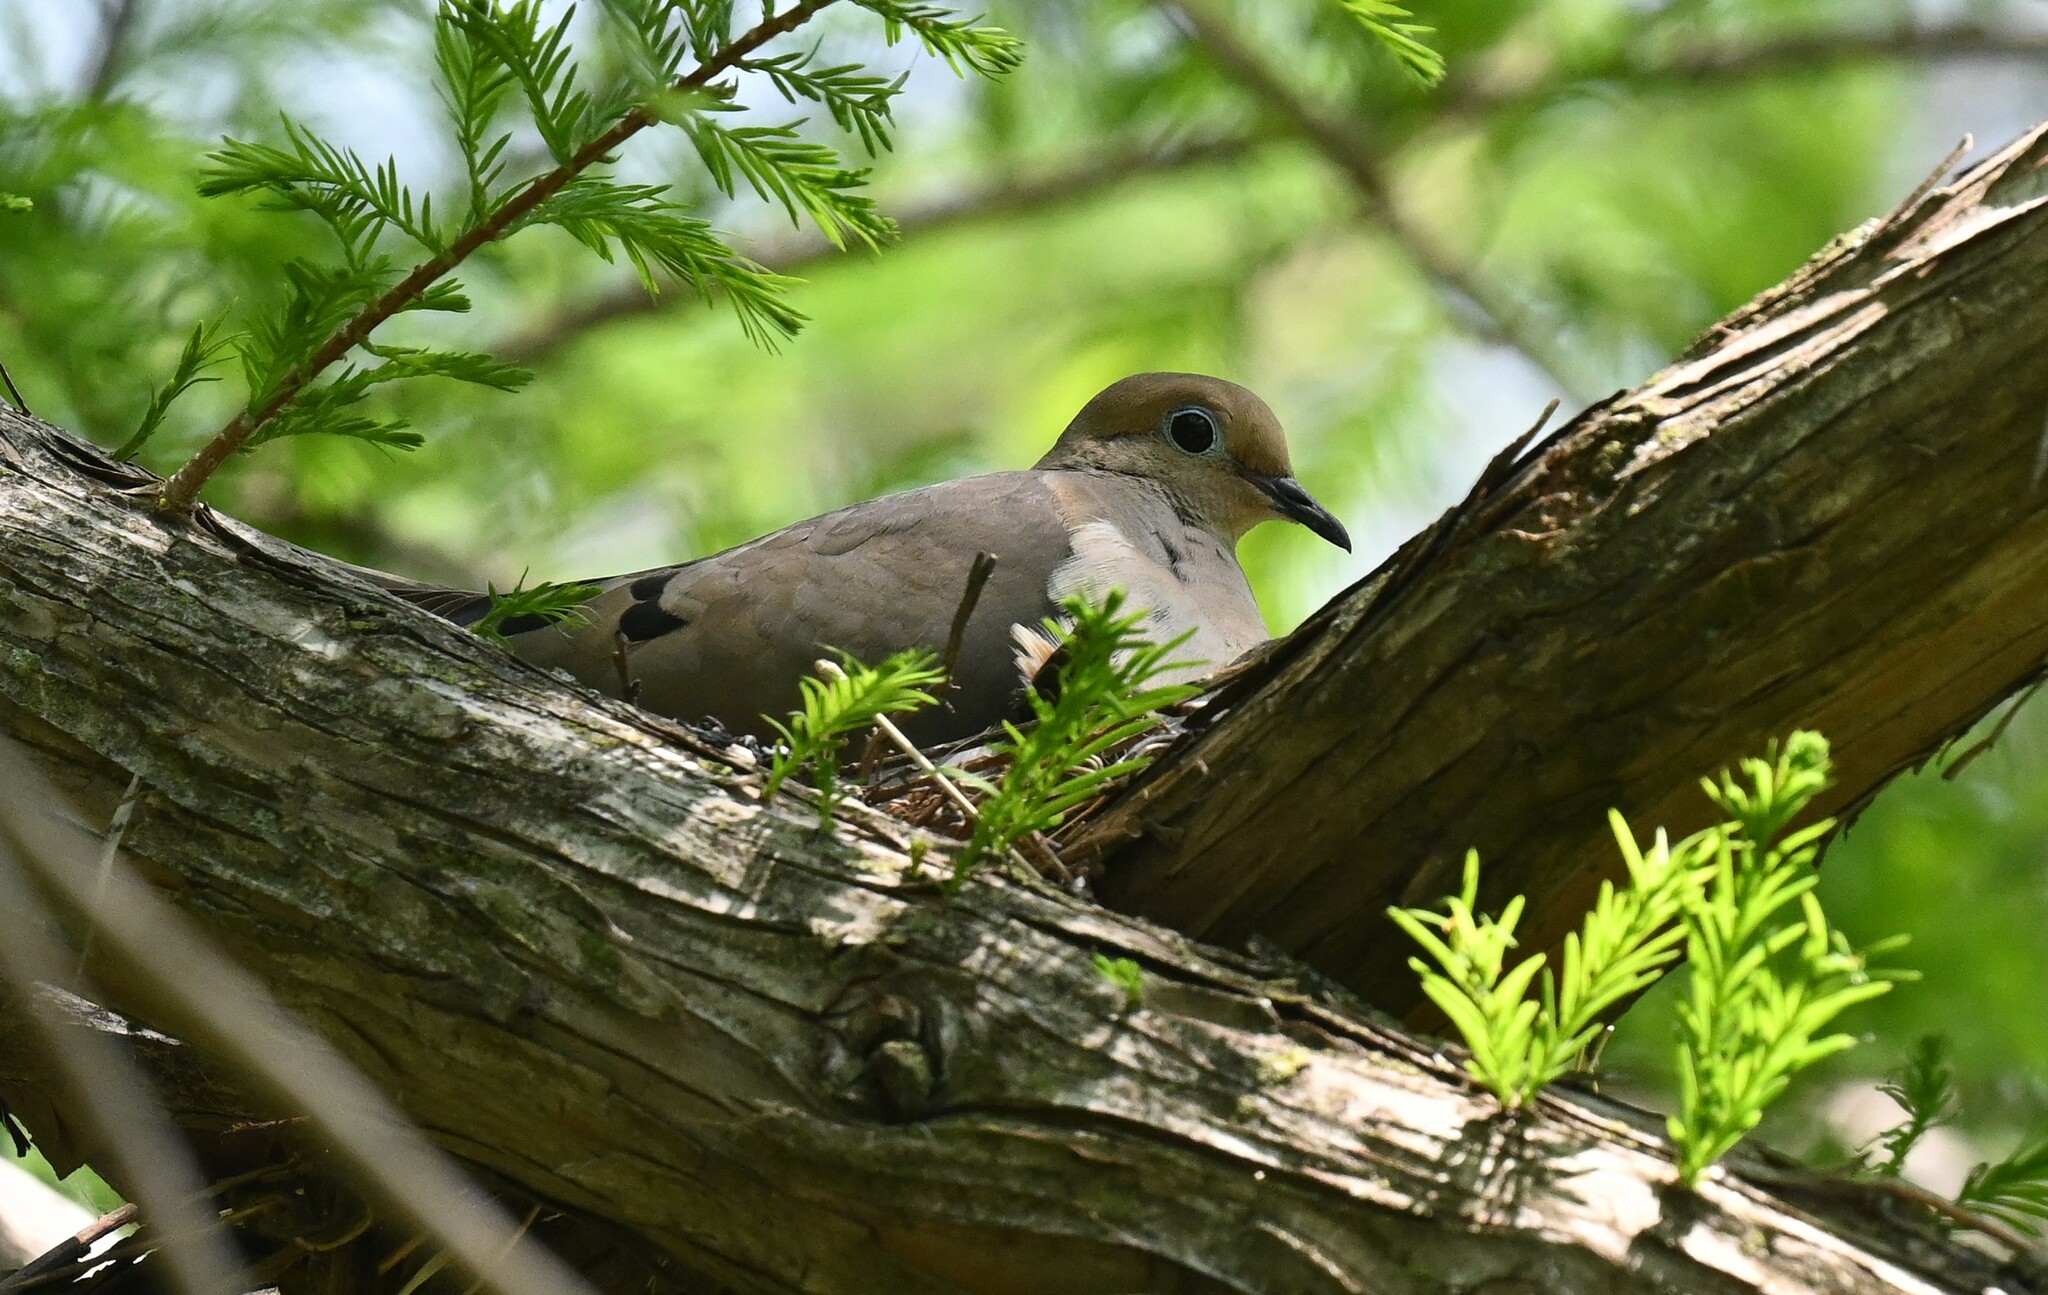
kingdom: Animalia
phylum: Chordata
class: Aves
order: Columbiformes
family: Columbidae
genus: Zenaida
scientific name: Zenaida macroura
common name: Mourning dove
